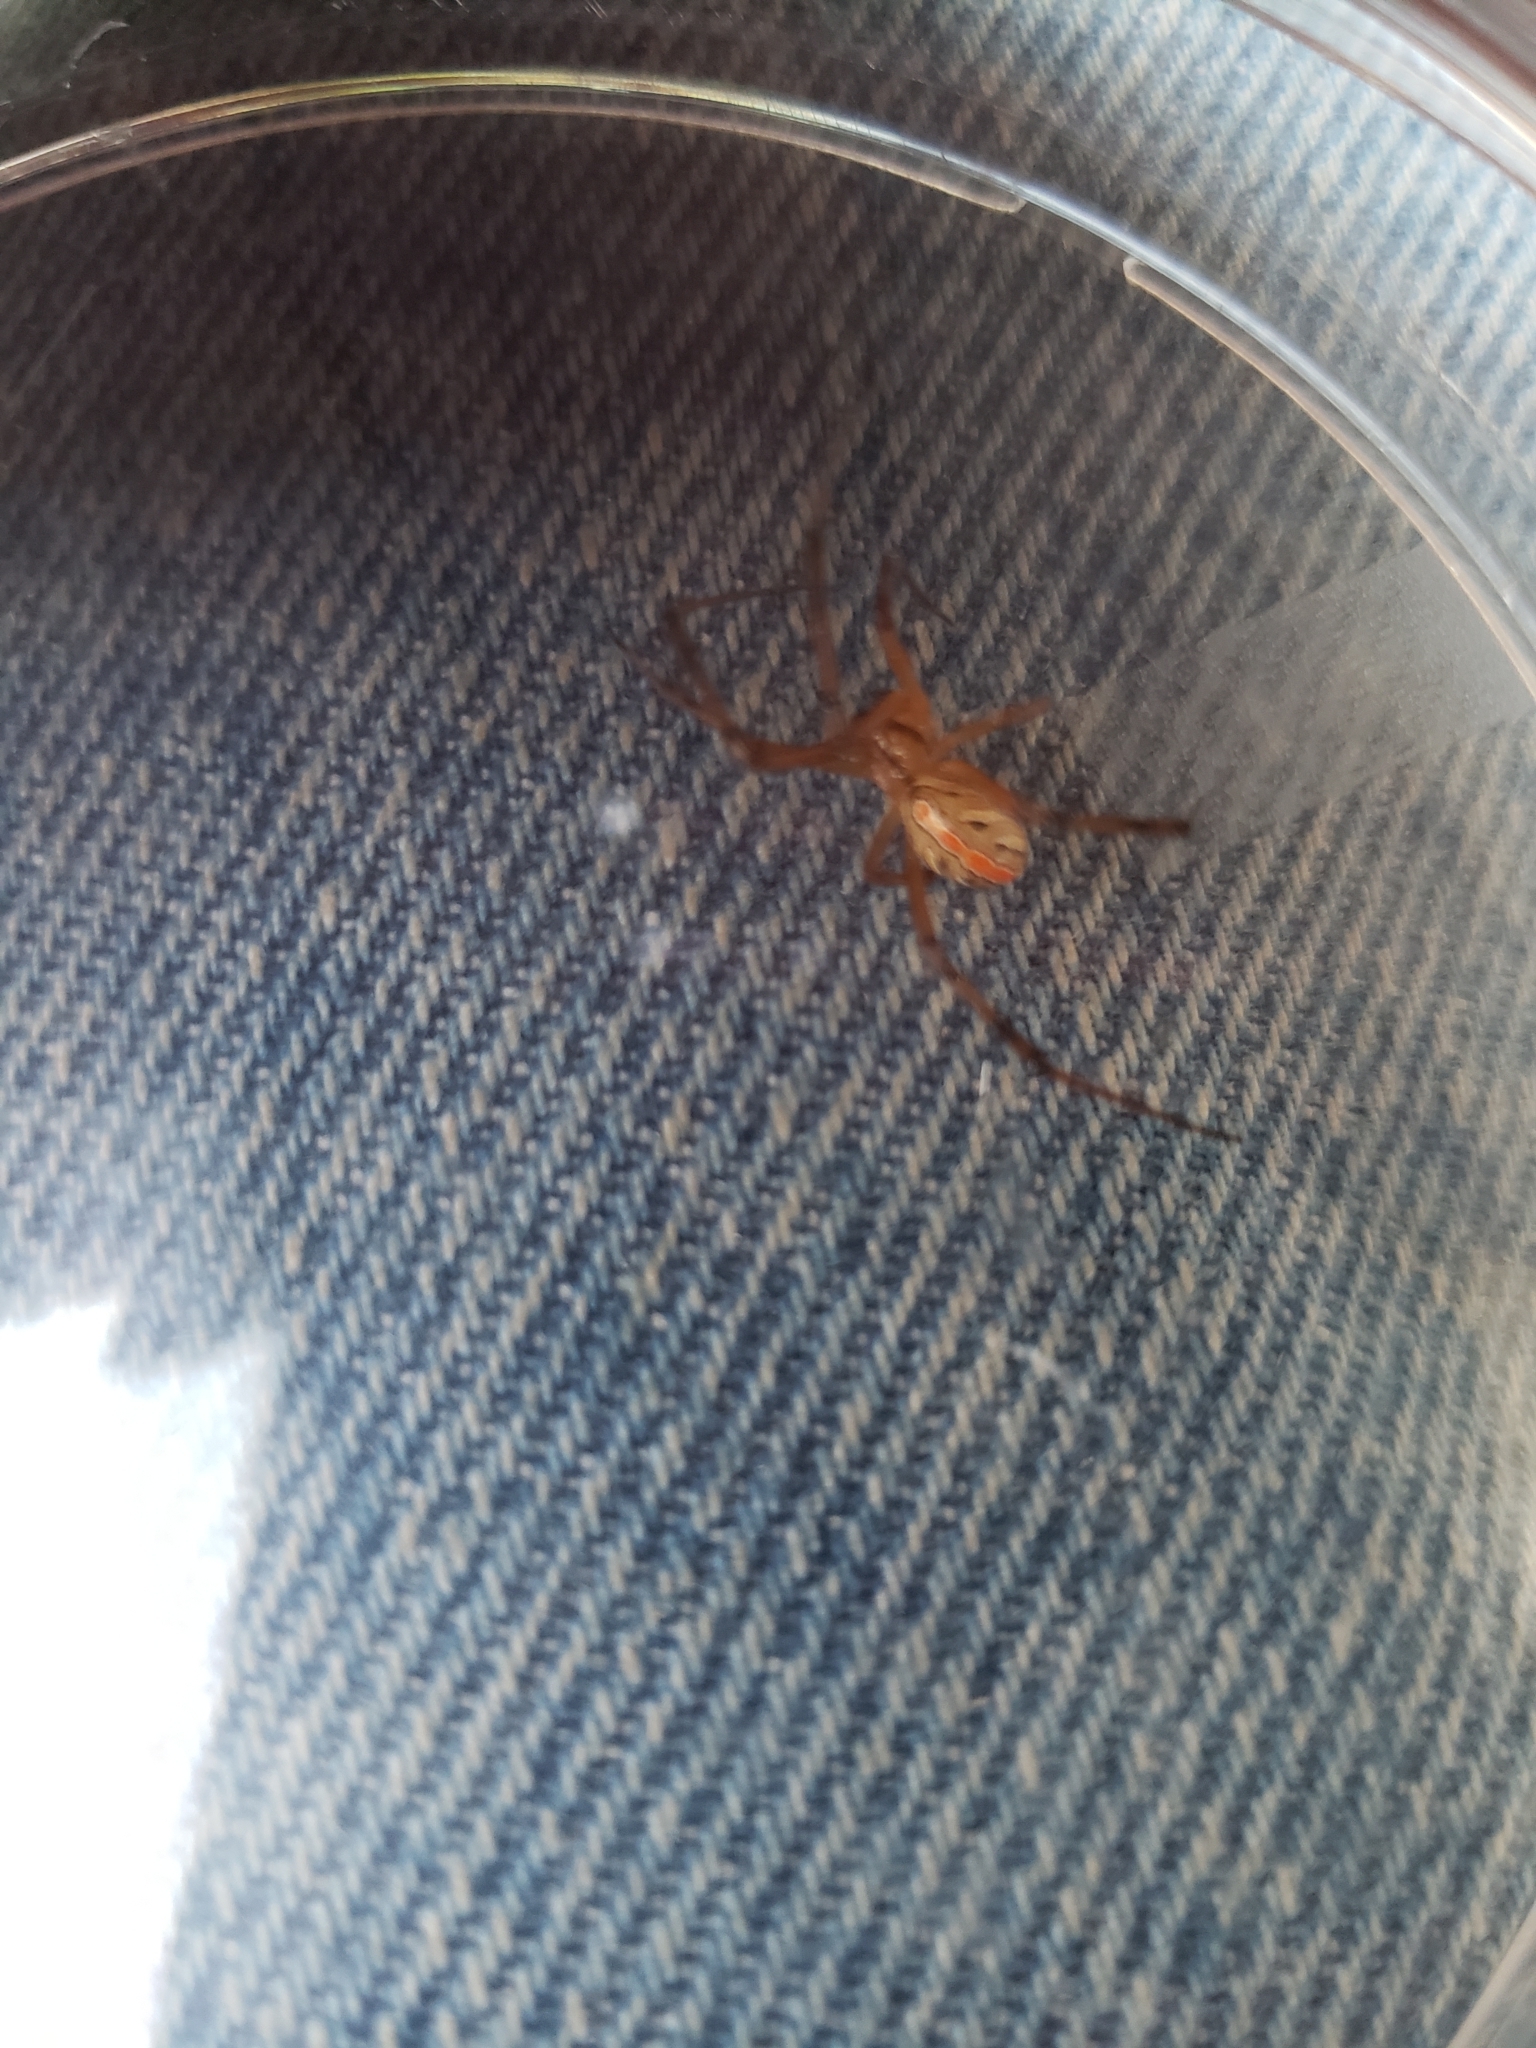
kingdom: Animalia
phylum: Arthropoda
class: Arachnida
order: Araneae
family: Theridiidae
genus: Latrodectus
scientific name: Latrodectus hesperus
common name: Western black widow
